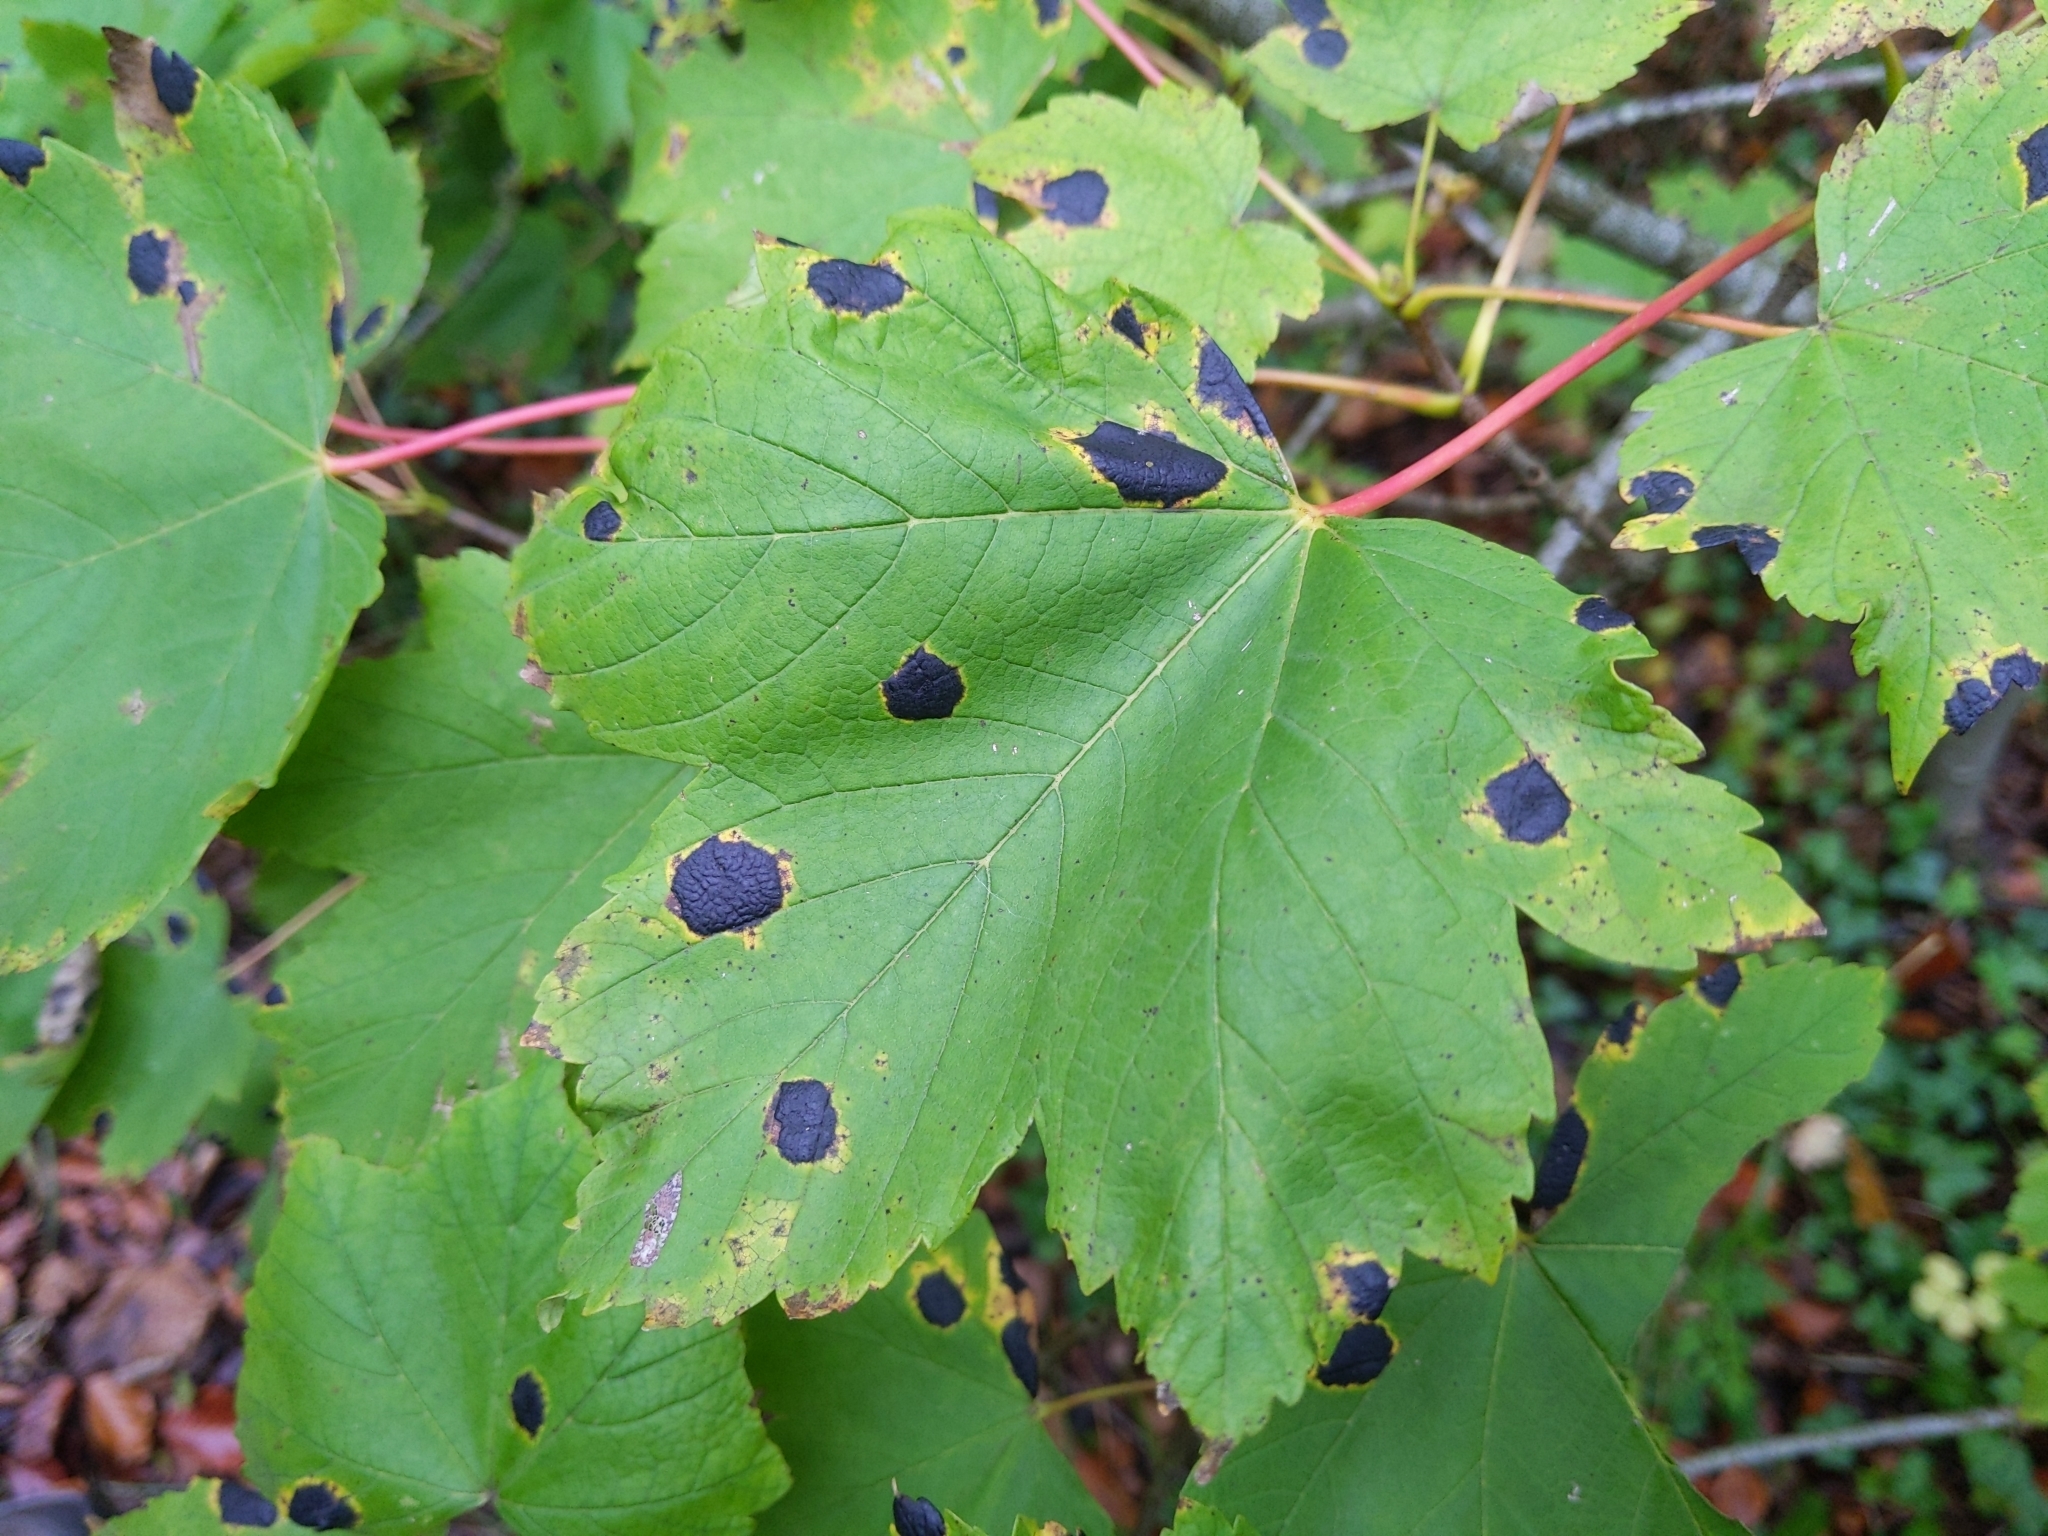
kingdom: Fungi
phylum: Ascomycota
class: Leotiomycetes
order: Rhytismatales
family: Rhytismataceae
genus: Rhytisma
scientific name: Rhytisma acerinum
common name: European tar spot
